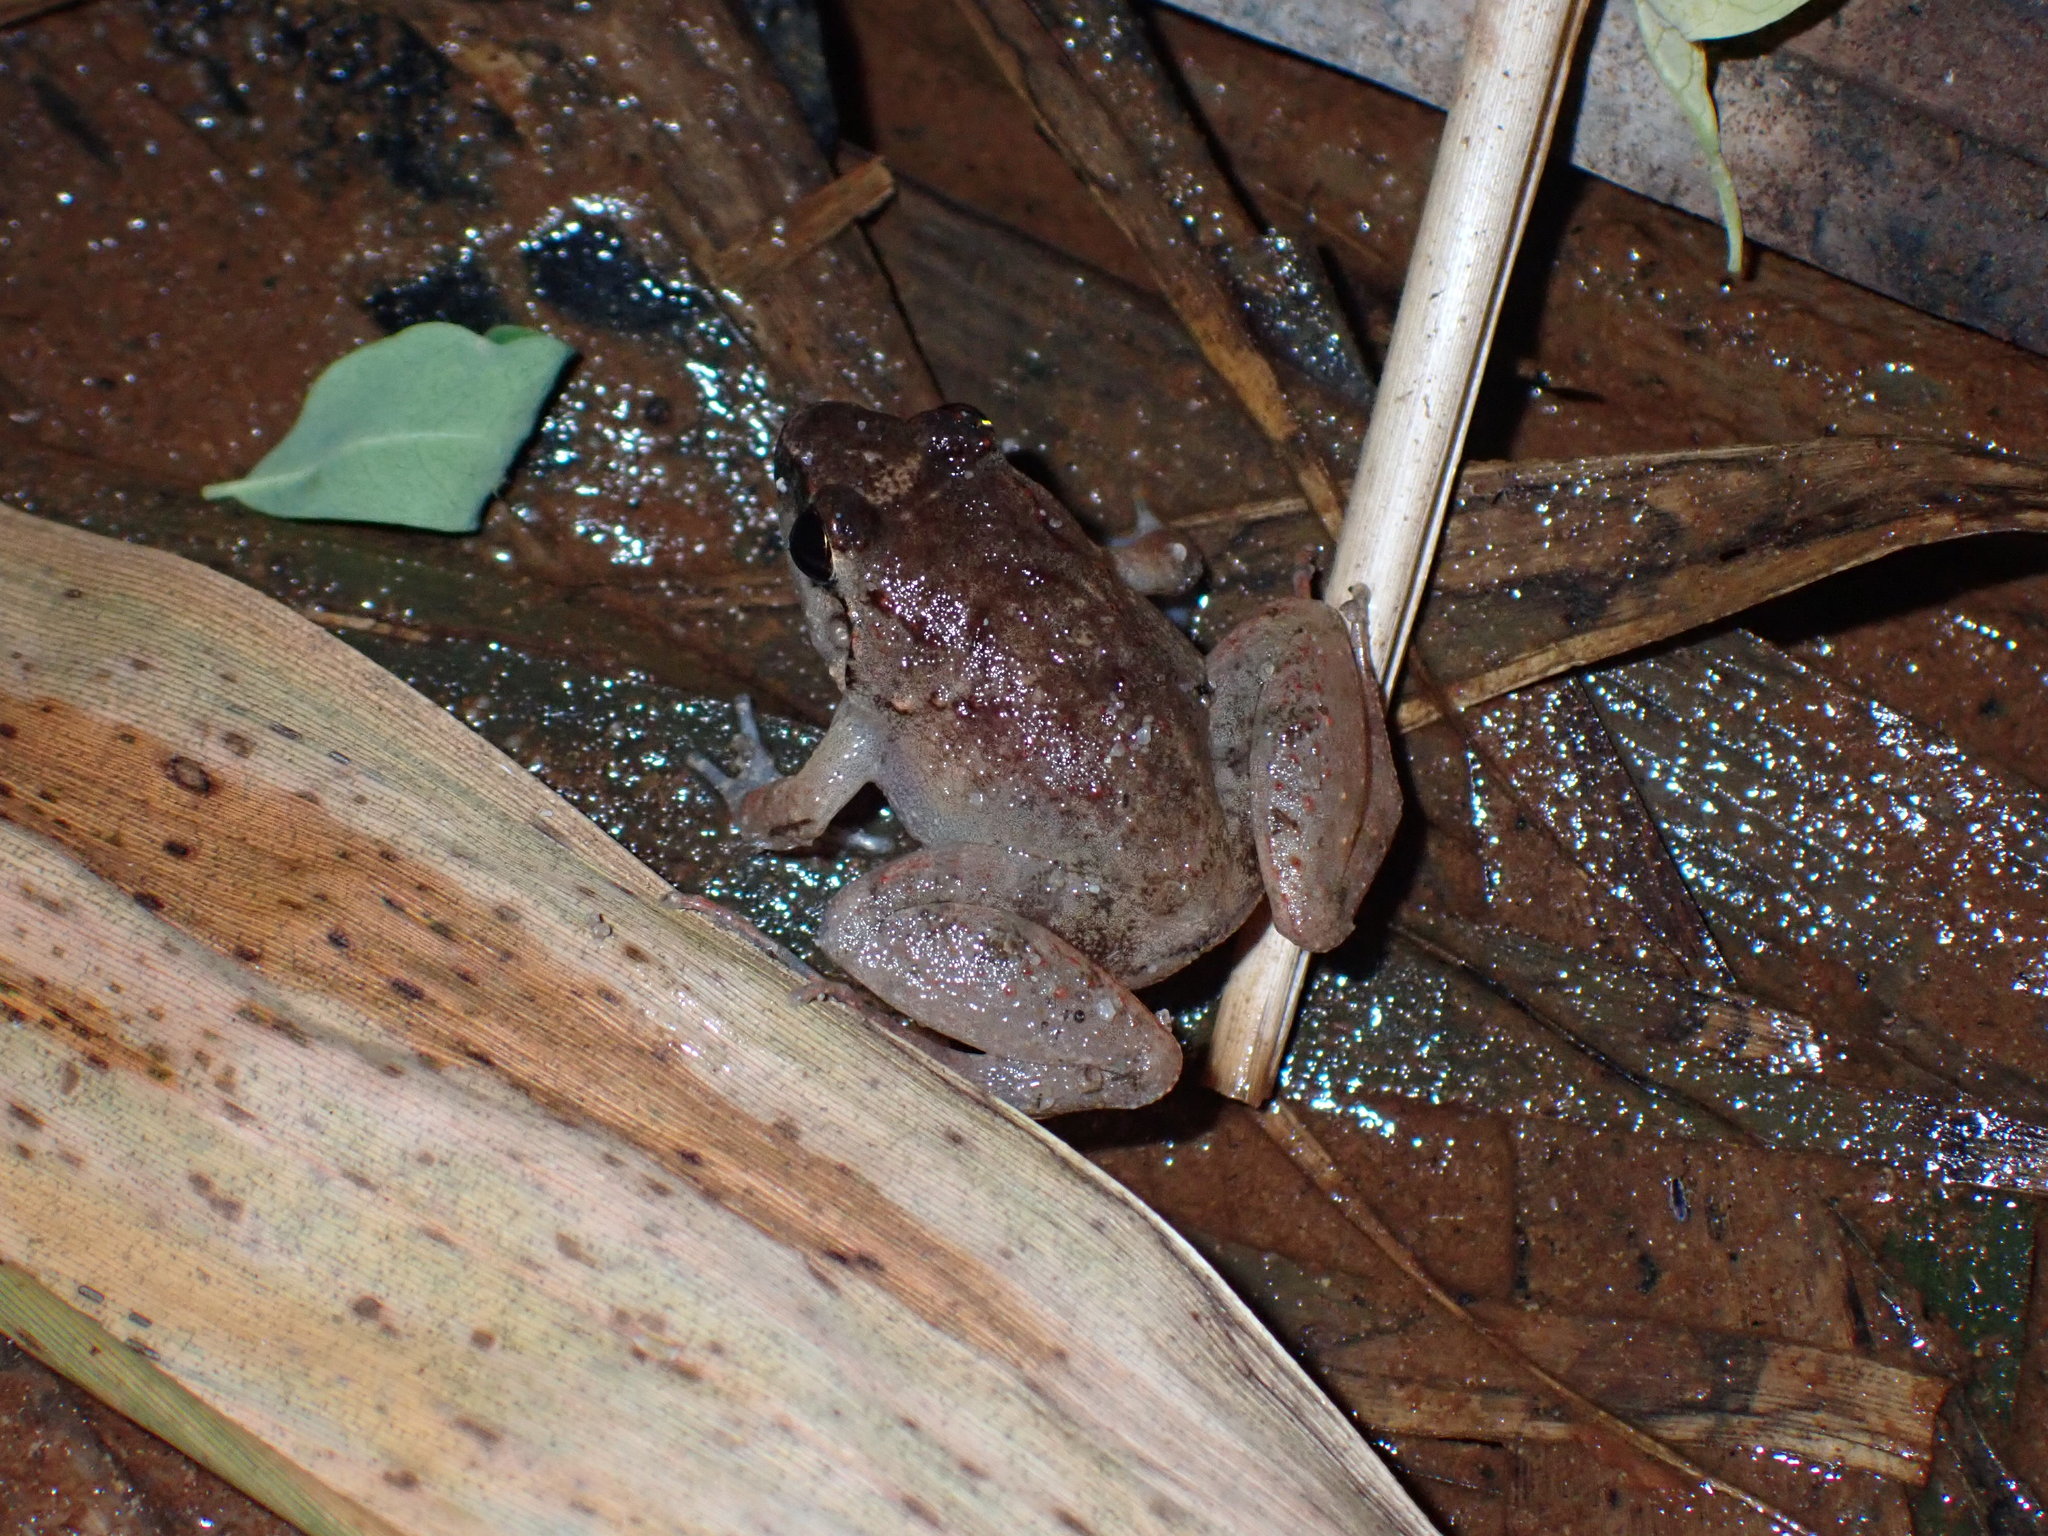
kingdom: Animalia
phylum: Chordata
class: Amphibia
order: Anura
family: Dicroglossidae
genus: Limnonectes
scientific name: Limnonectes hascheanus
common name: Hill forest frog
